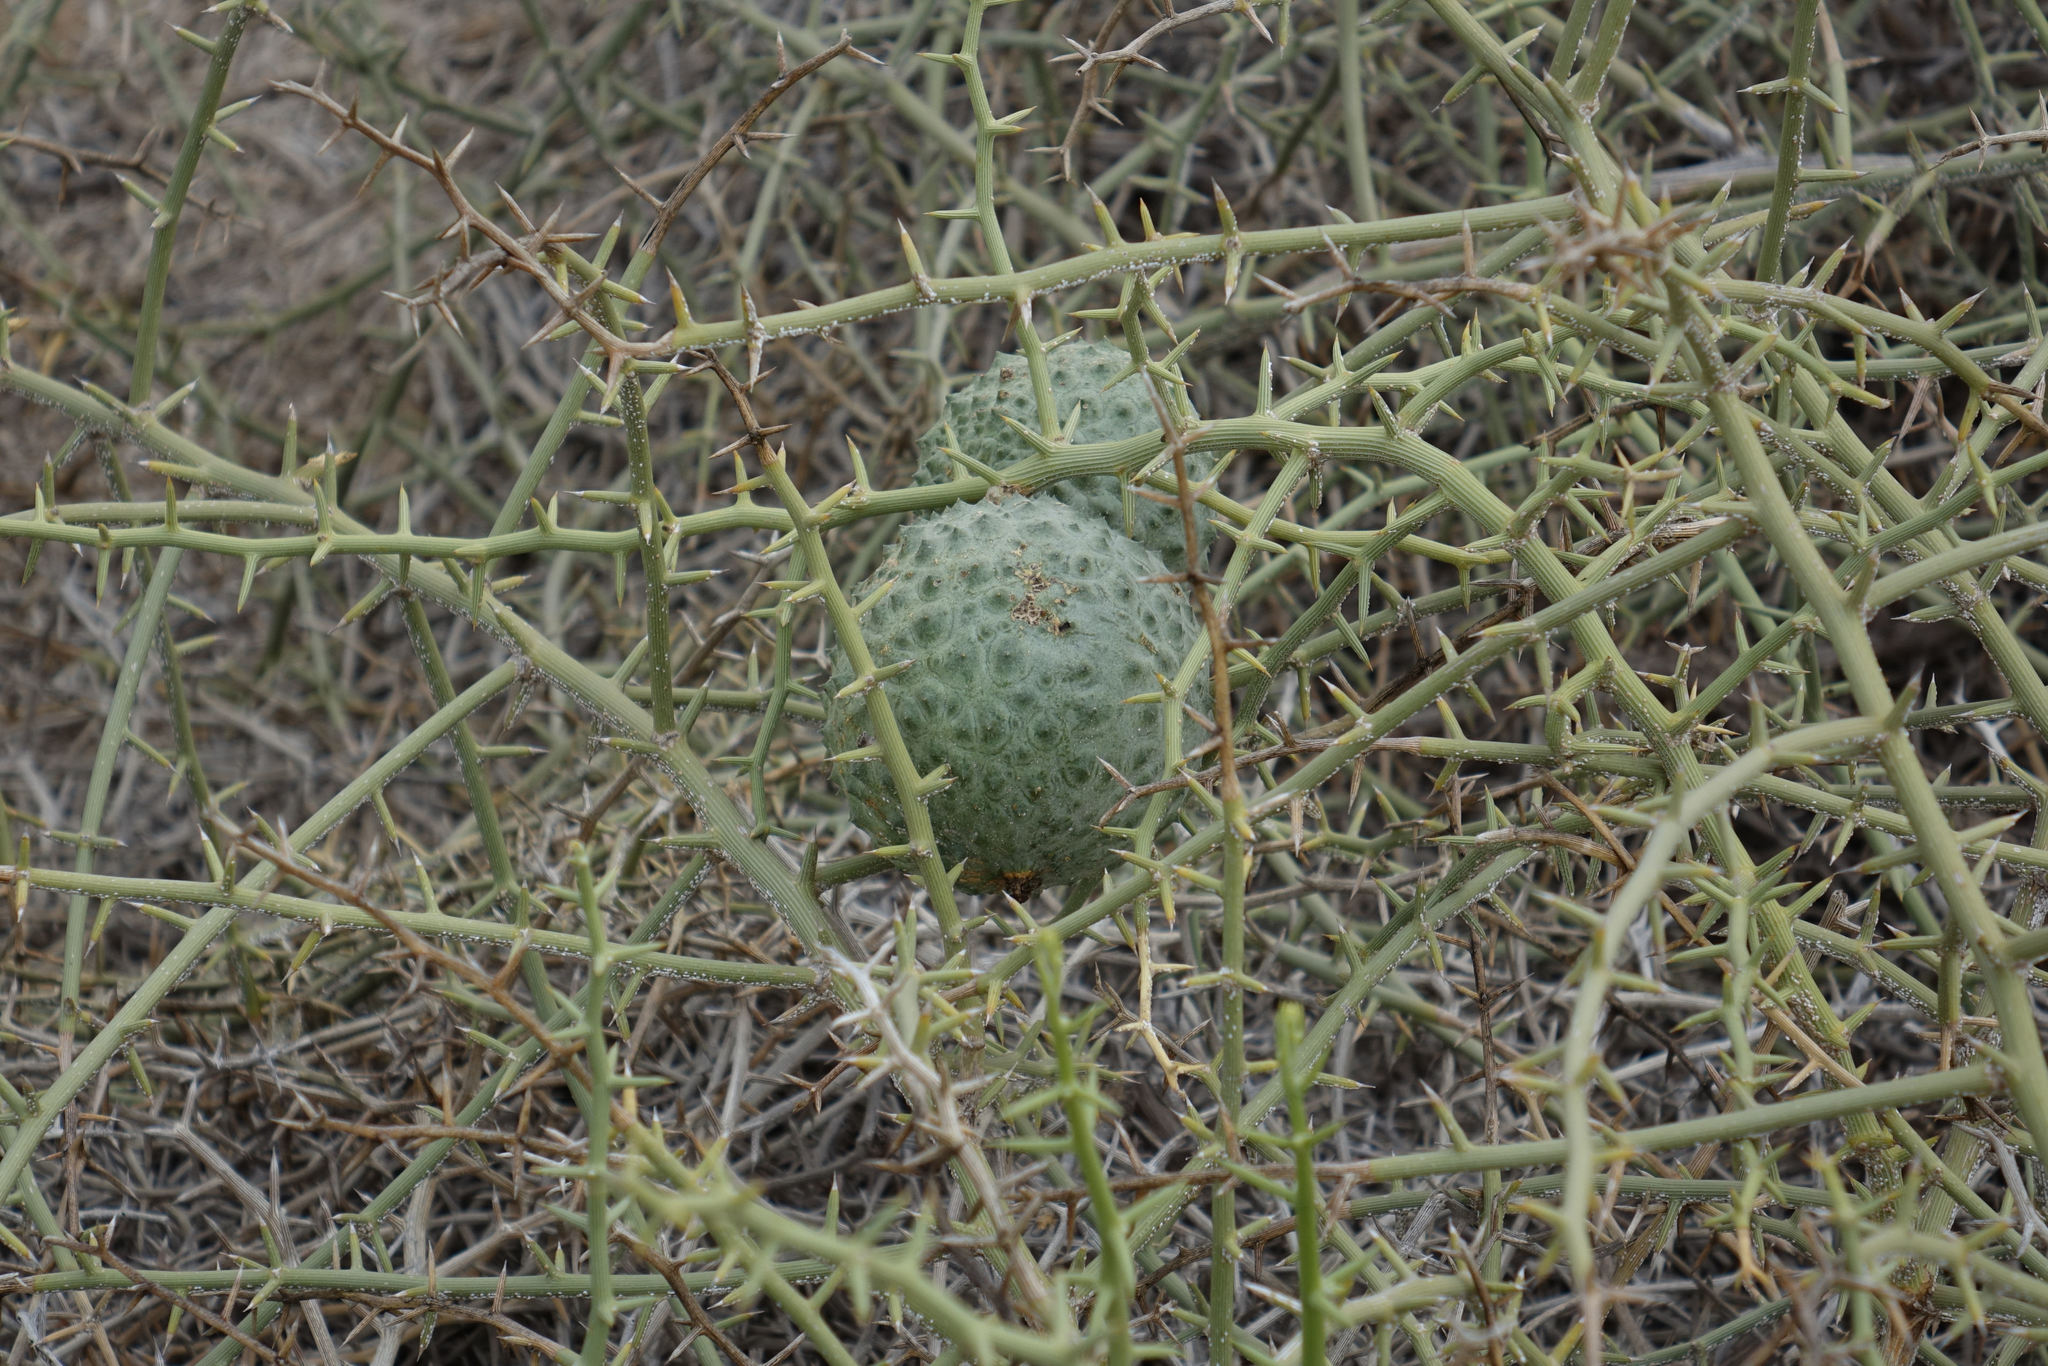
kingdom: Plantae
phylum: Tracheophyta
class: Magnoliopsida
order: Cucurbitales
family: Cucurbitaceae
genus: Acanthosicyos
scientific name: Acanthosicyos horridus
